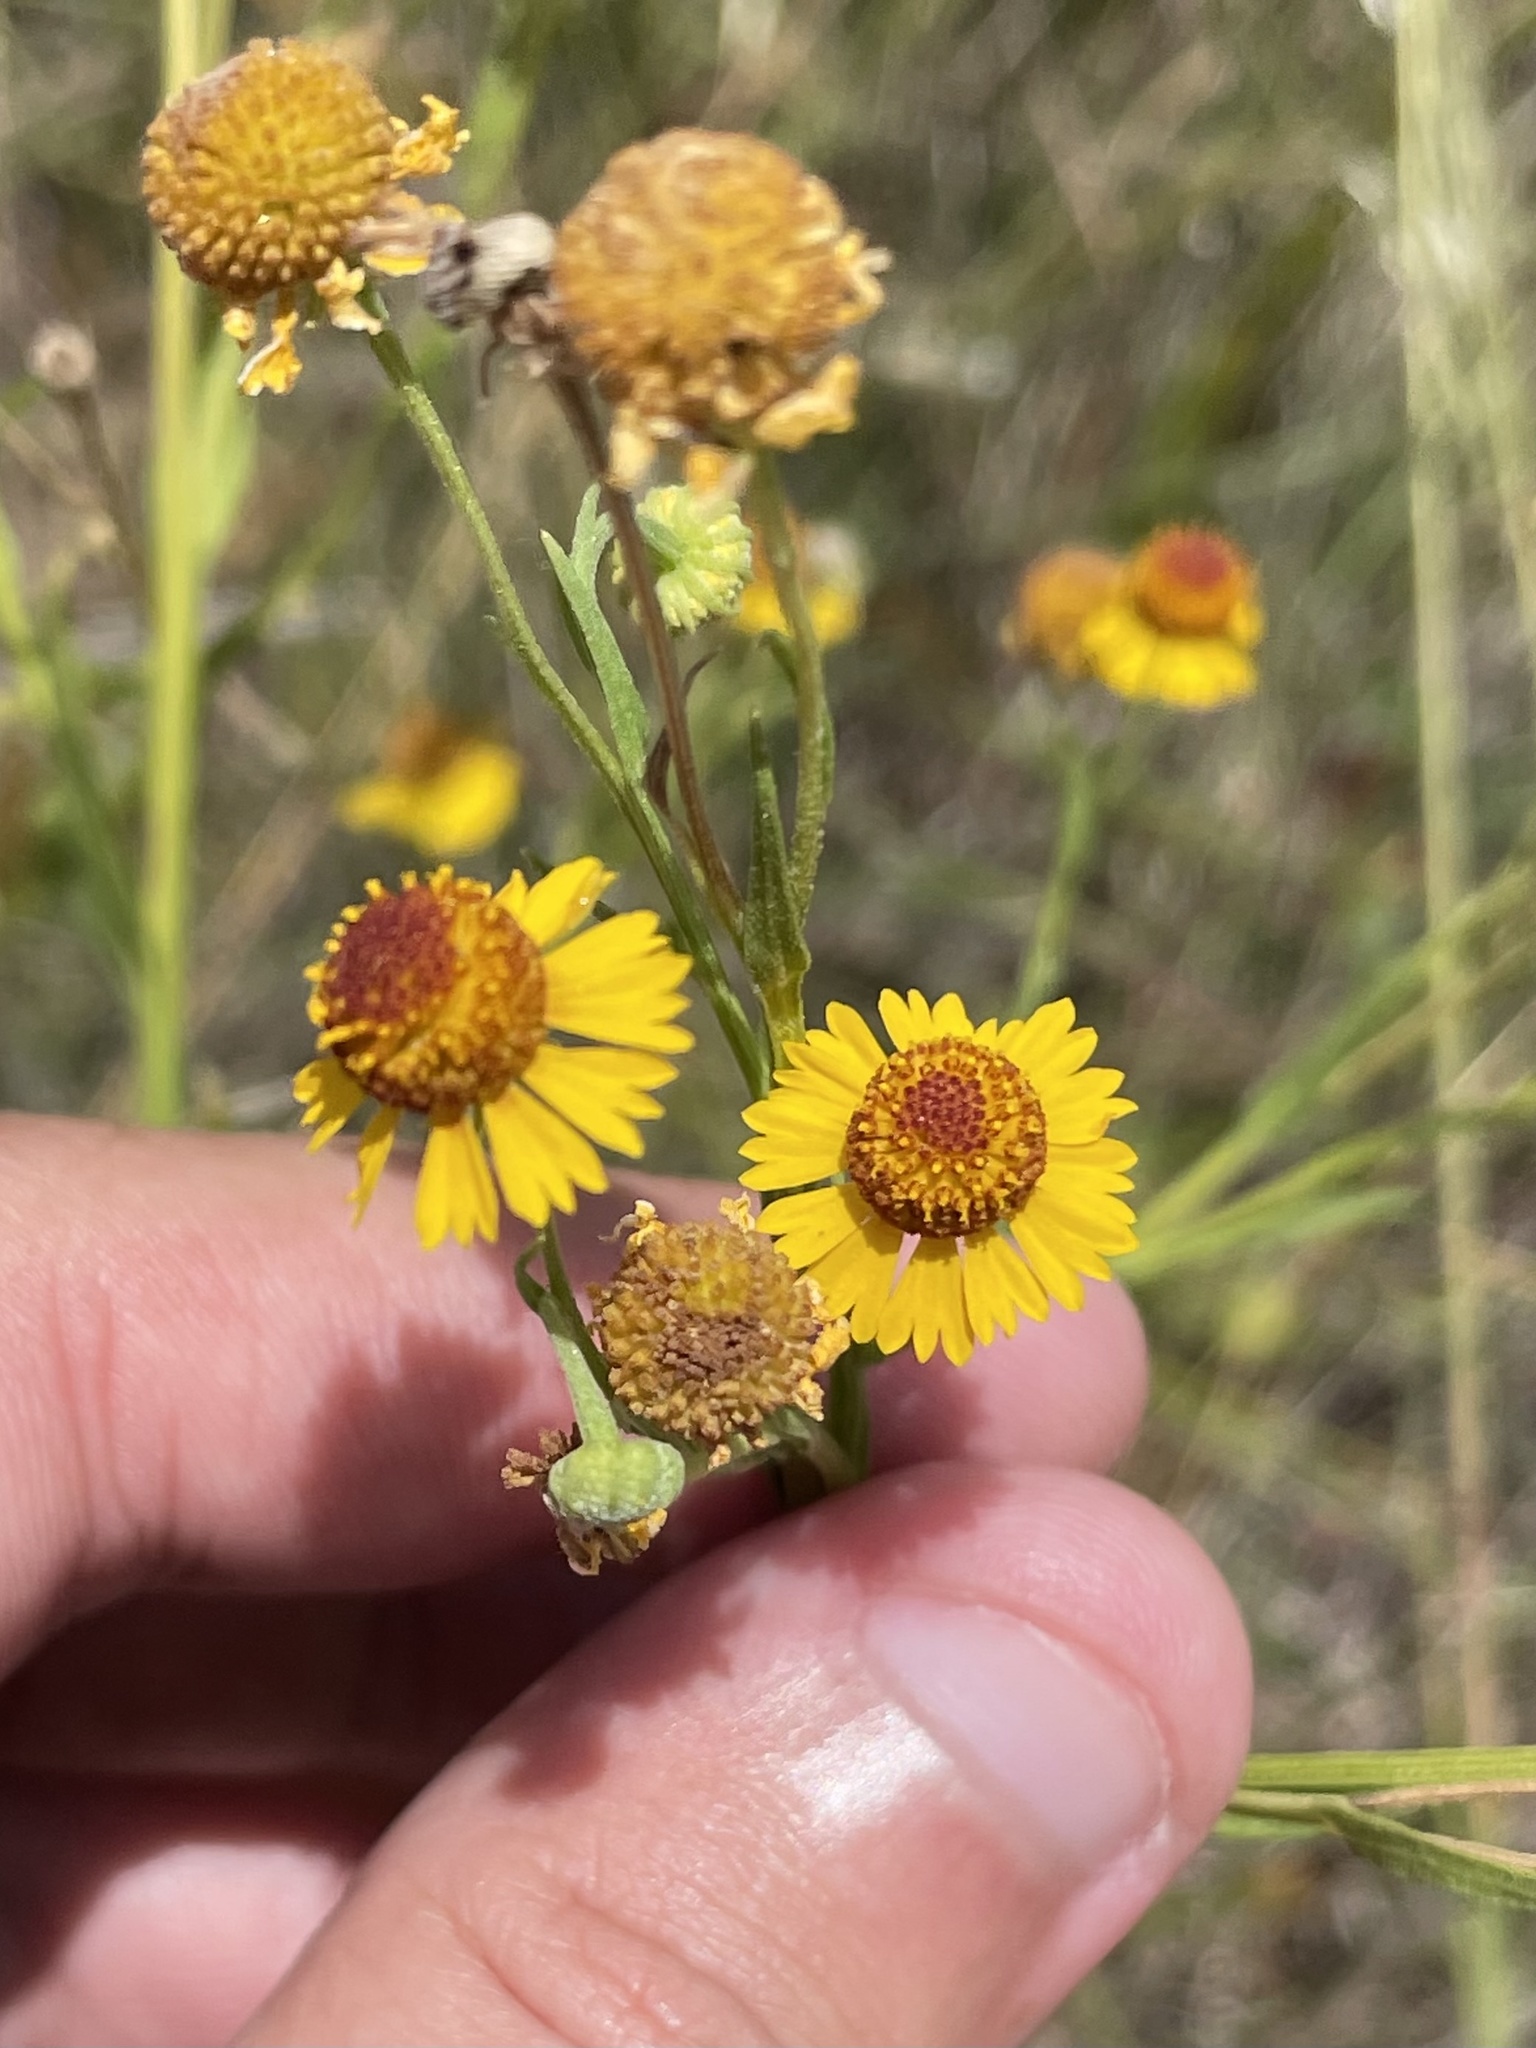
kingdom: Plantae
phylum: Tracheophyta
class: Magnoliopsida
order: Asterales
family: Asteraceae
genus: Helenium
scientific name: Helenium elegans
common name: Pretty sneezeweed
